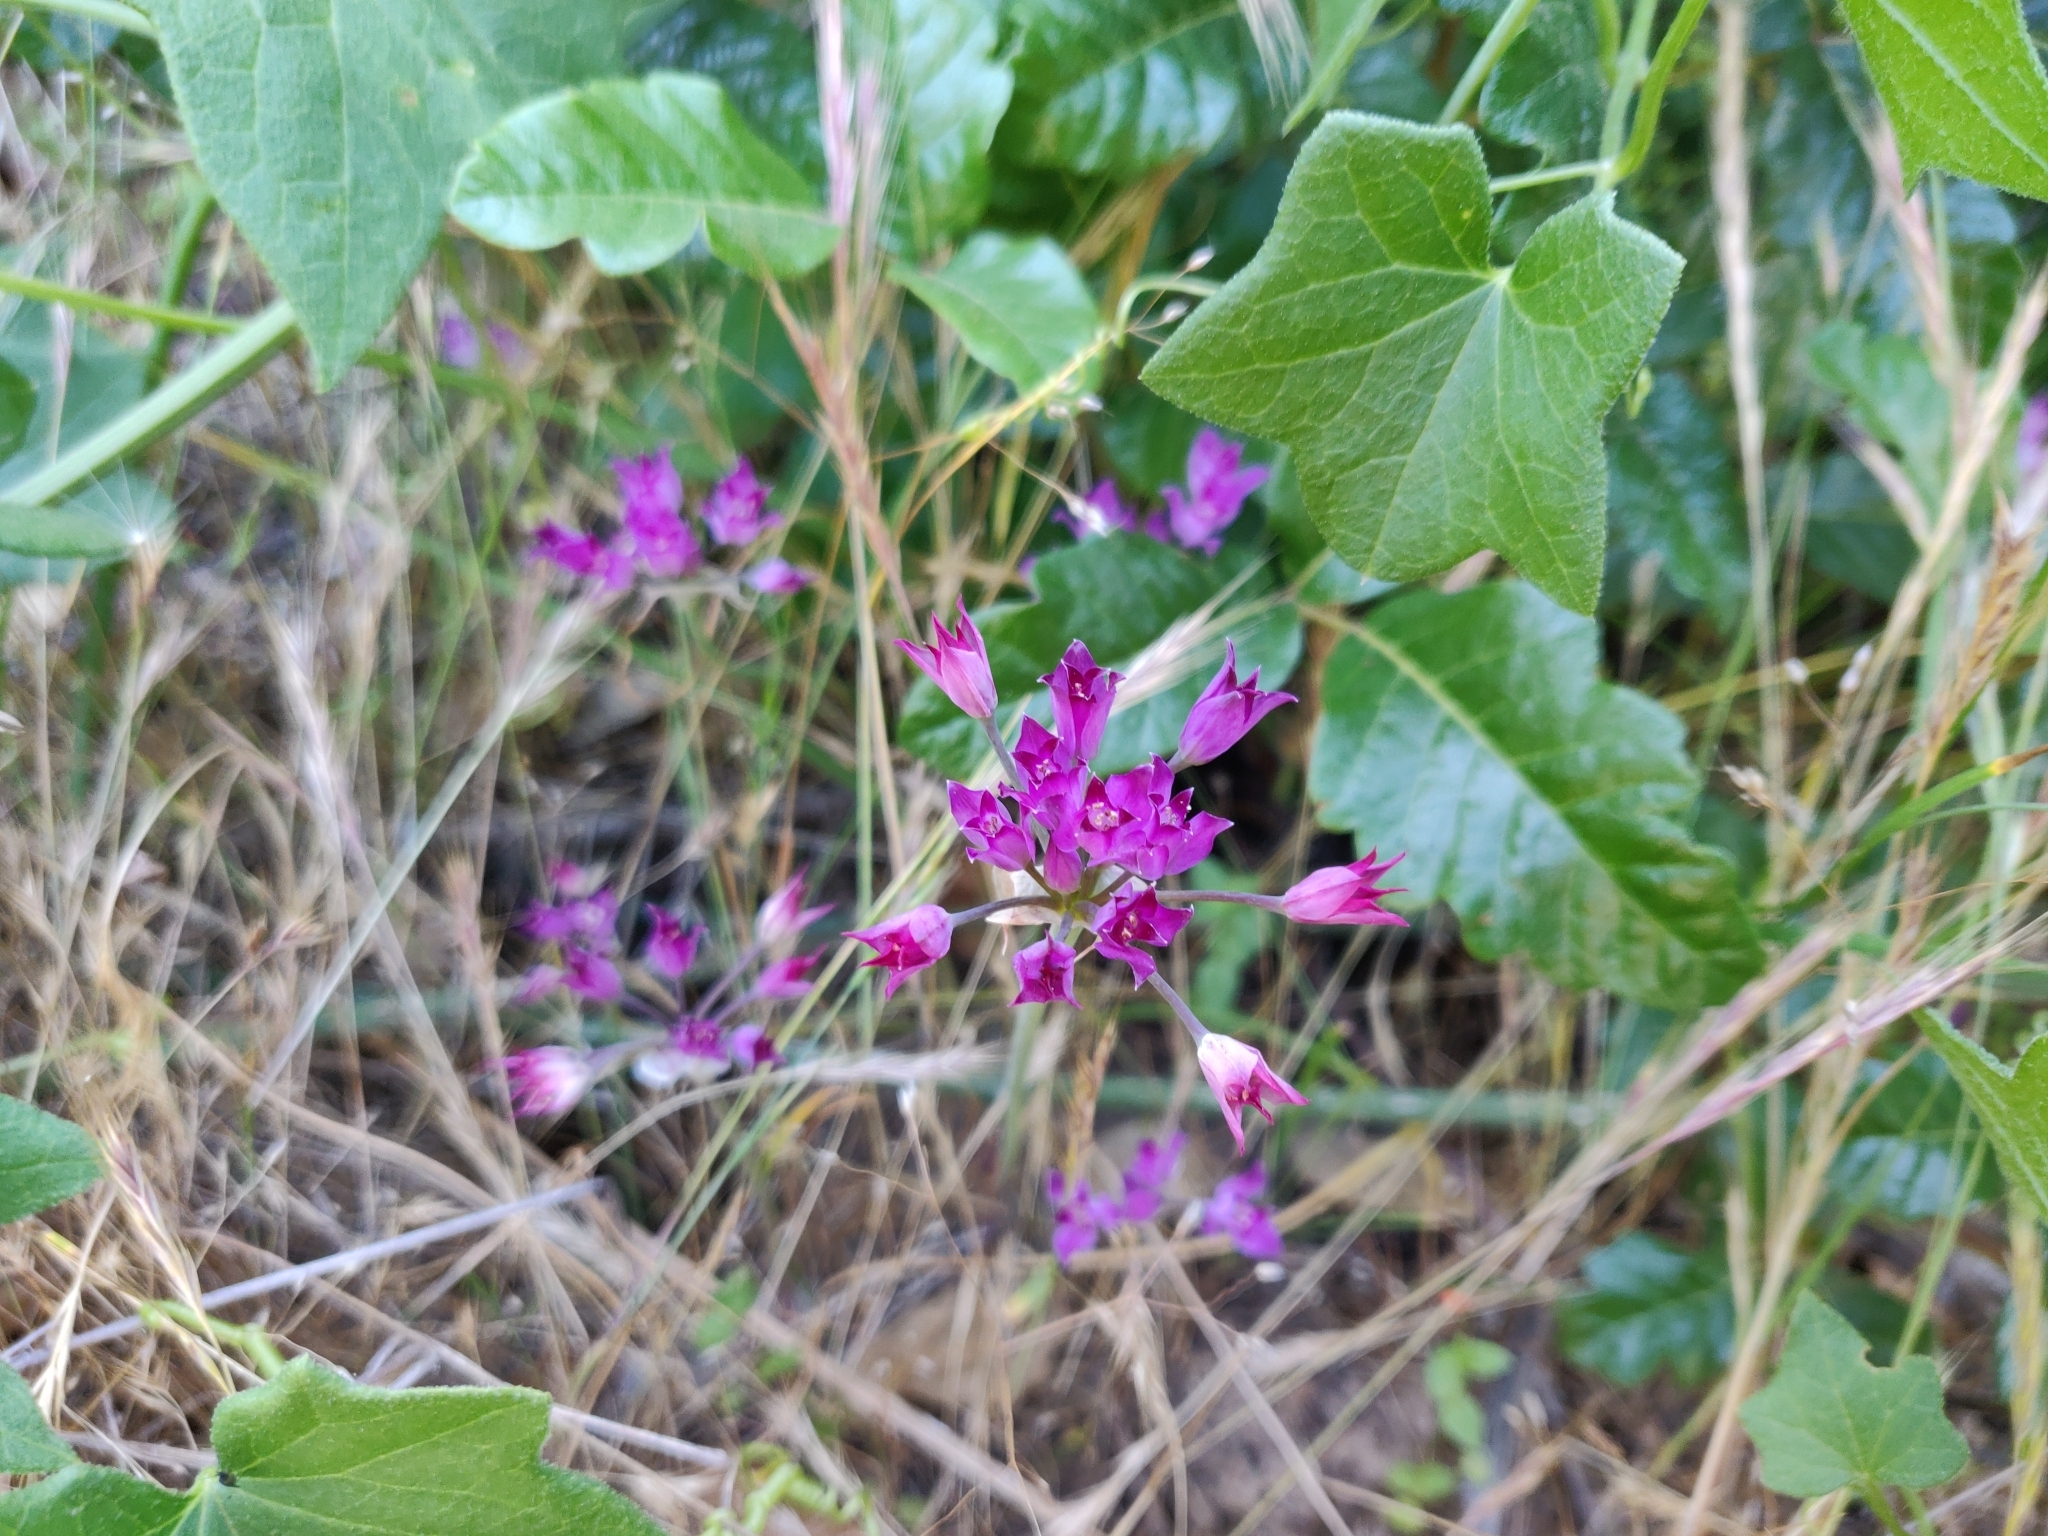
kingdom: Plantae
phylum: Tracheophyta
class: Liliopsida
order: Asparagales
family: Amaryllidaceae
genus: Allium
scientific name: Allium peninsulare
